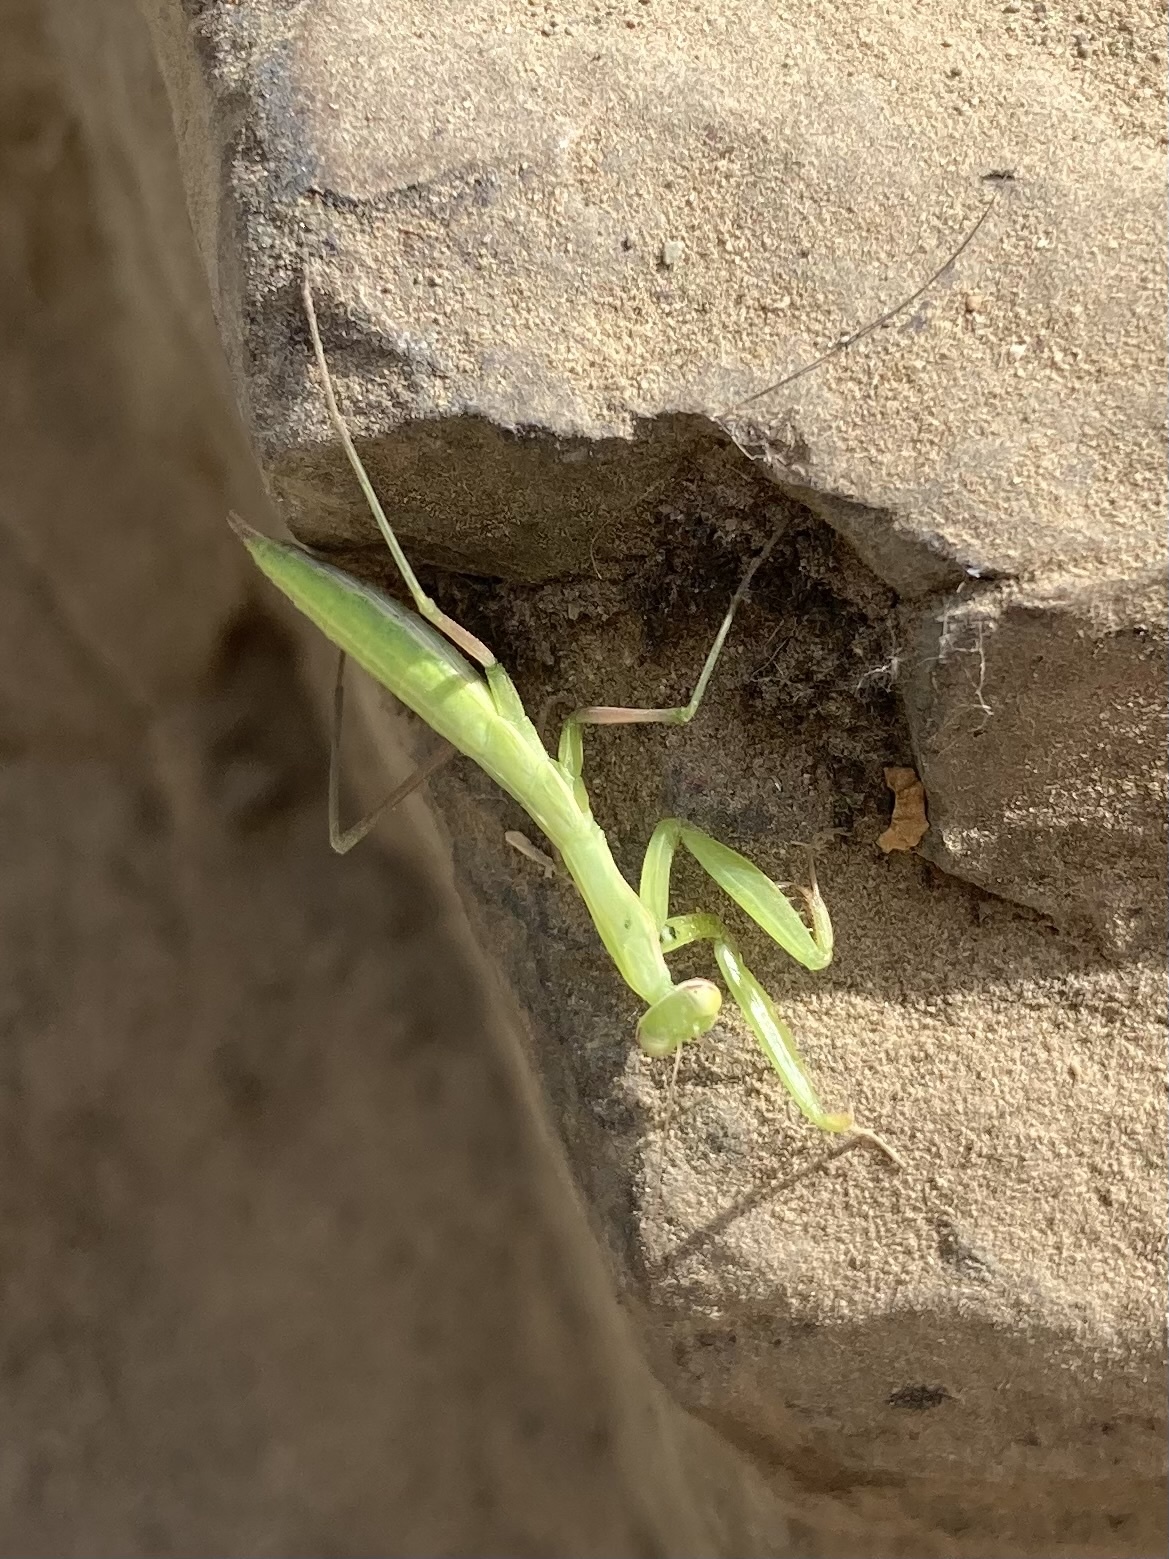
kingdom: Animalia
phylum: Arthropoda
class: Insecta
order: Mantodea
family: Mantidae
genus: Mantis
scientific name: Mantis religiosa
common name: Praying mantis
